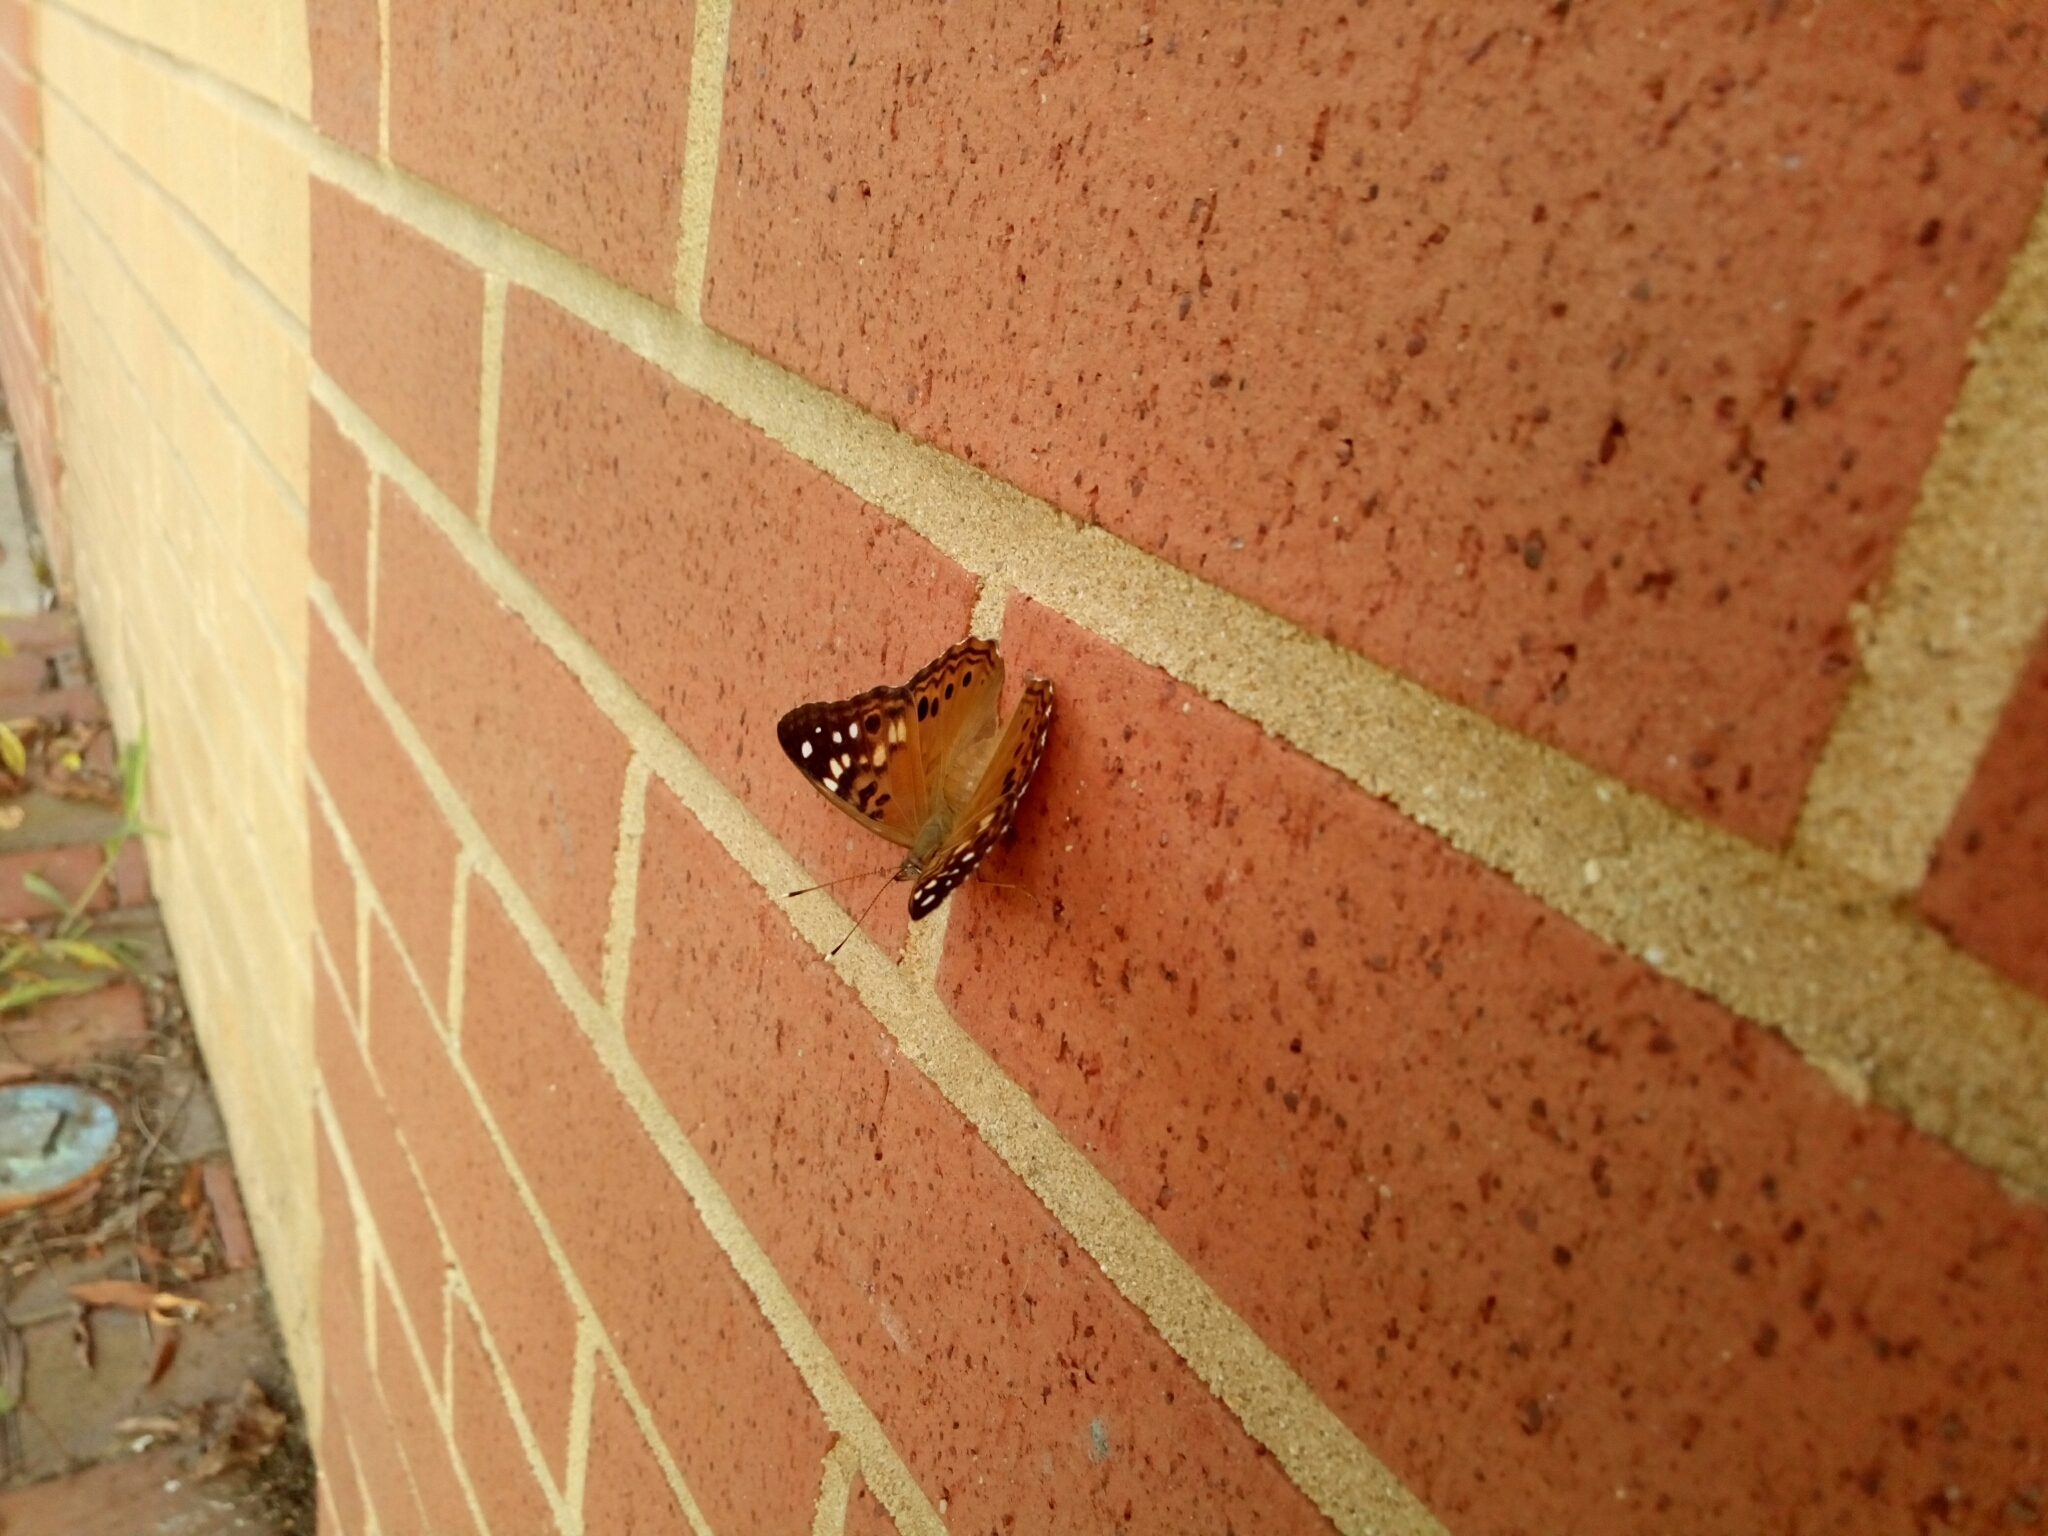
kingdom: Animalia
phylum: Arthropoda
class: Insecta
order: Lepidoptera
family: Nymphalidae
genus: Asterocampa
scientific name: Asterocampa celtis
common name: Hackberry emperor
